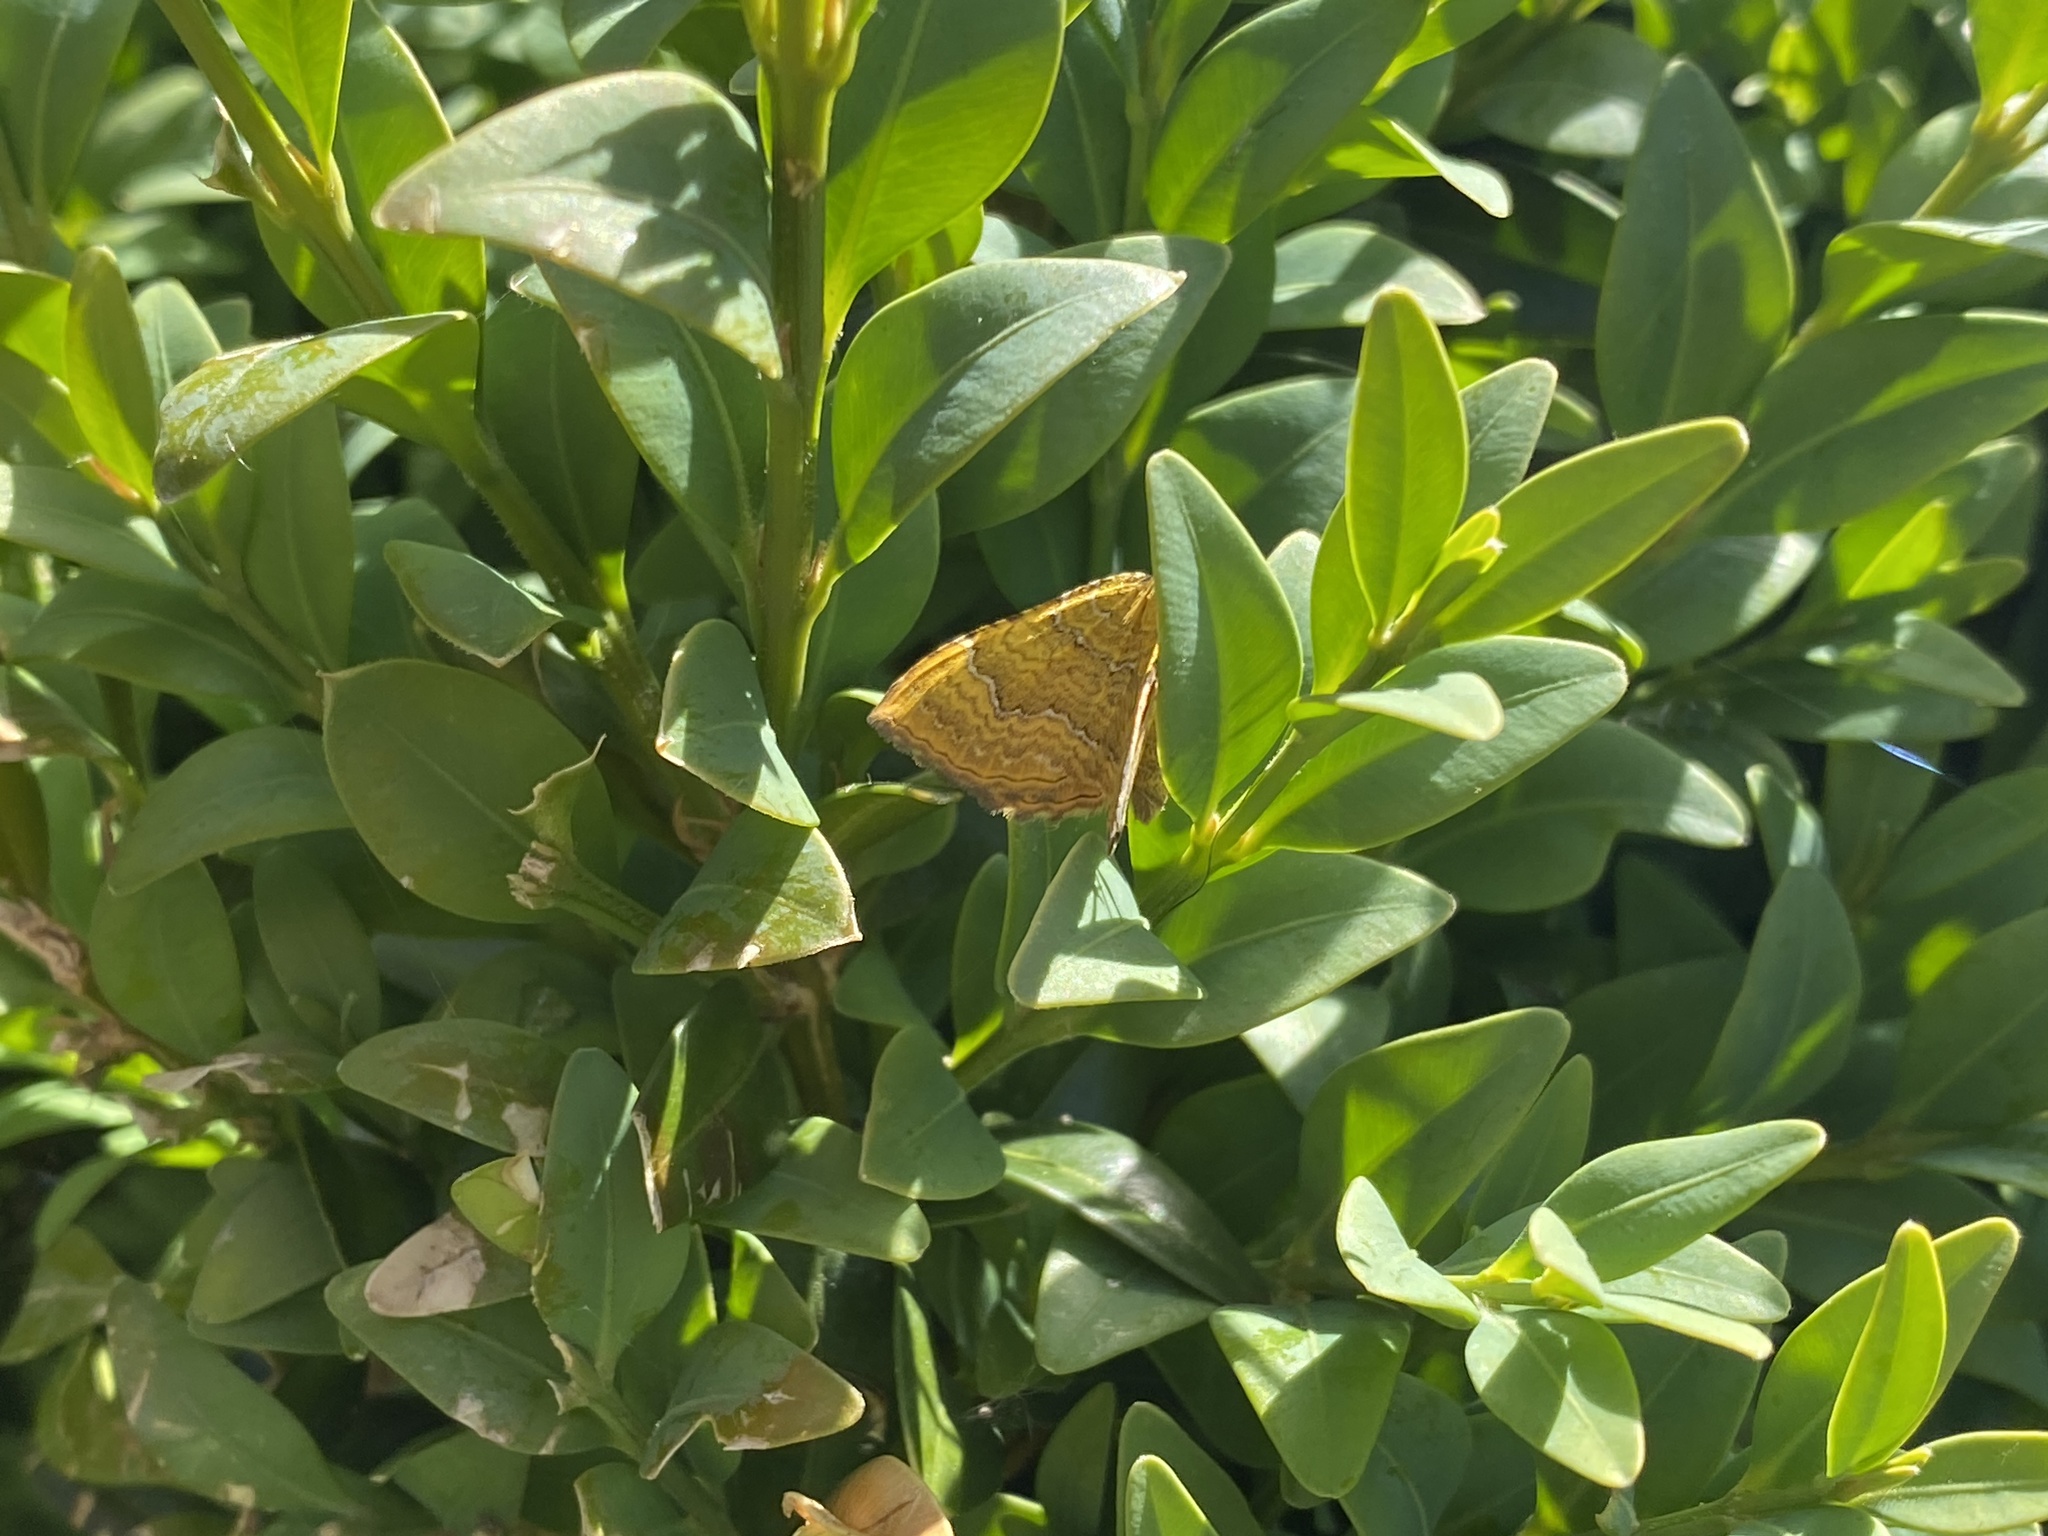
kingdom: Animalia
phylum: Arthropoda
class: Insecta
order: Lepidoptera
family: Geometridae
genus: Camptogramma
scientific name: Camptogramma bilineata
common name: Yellow shell
